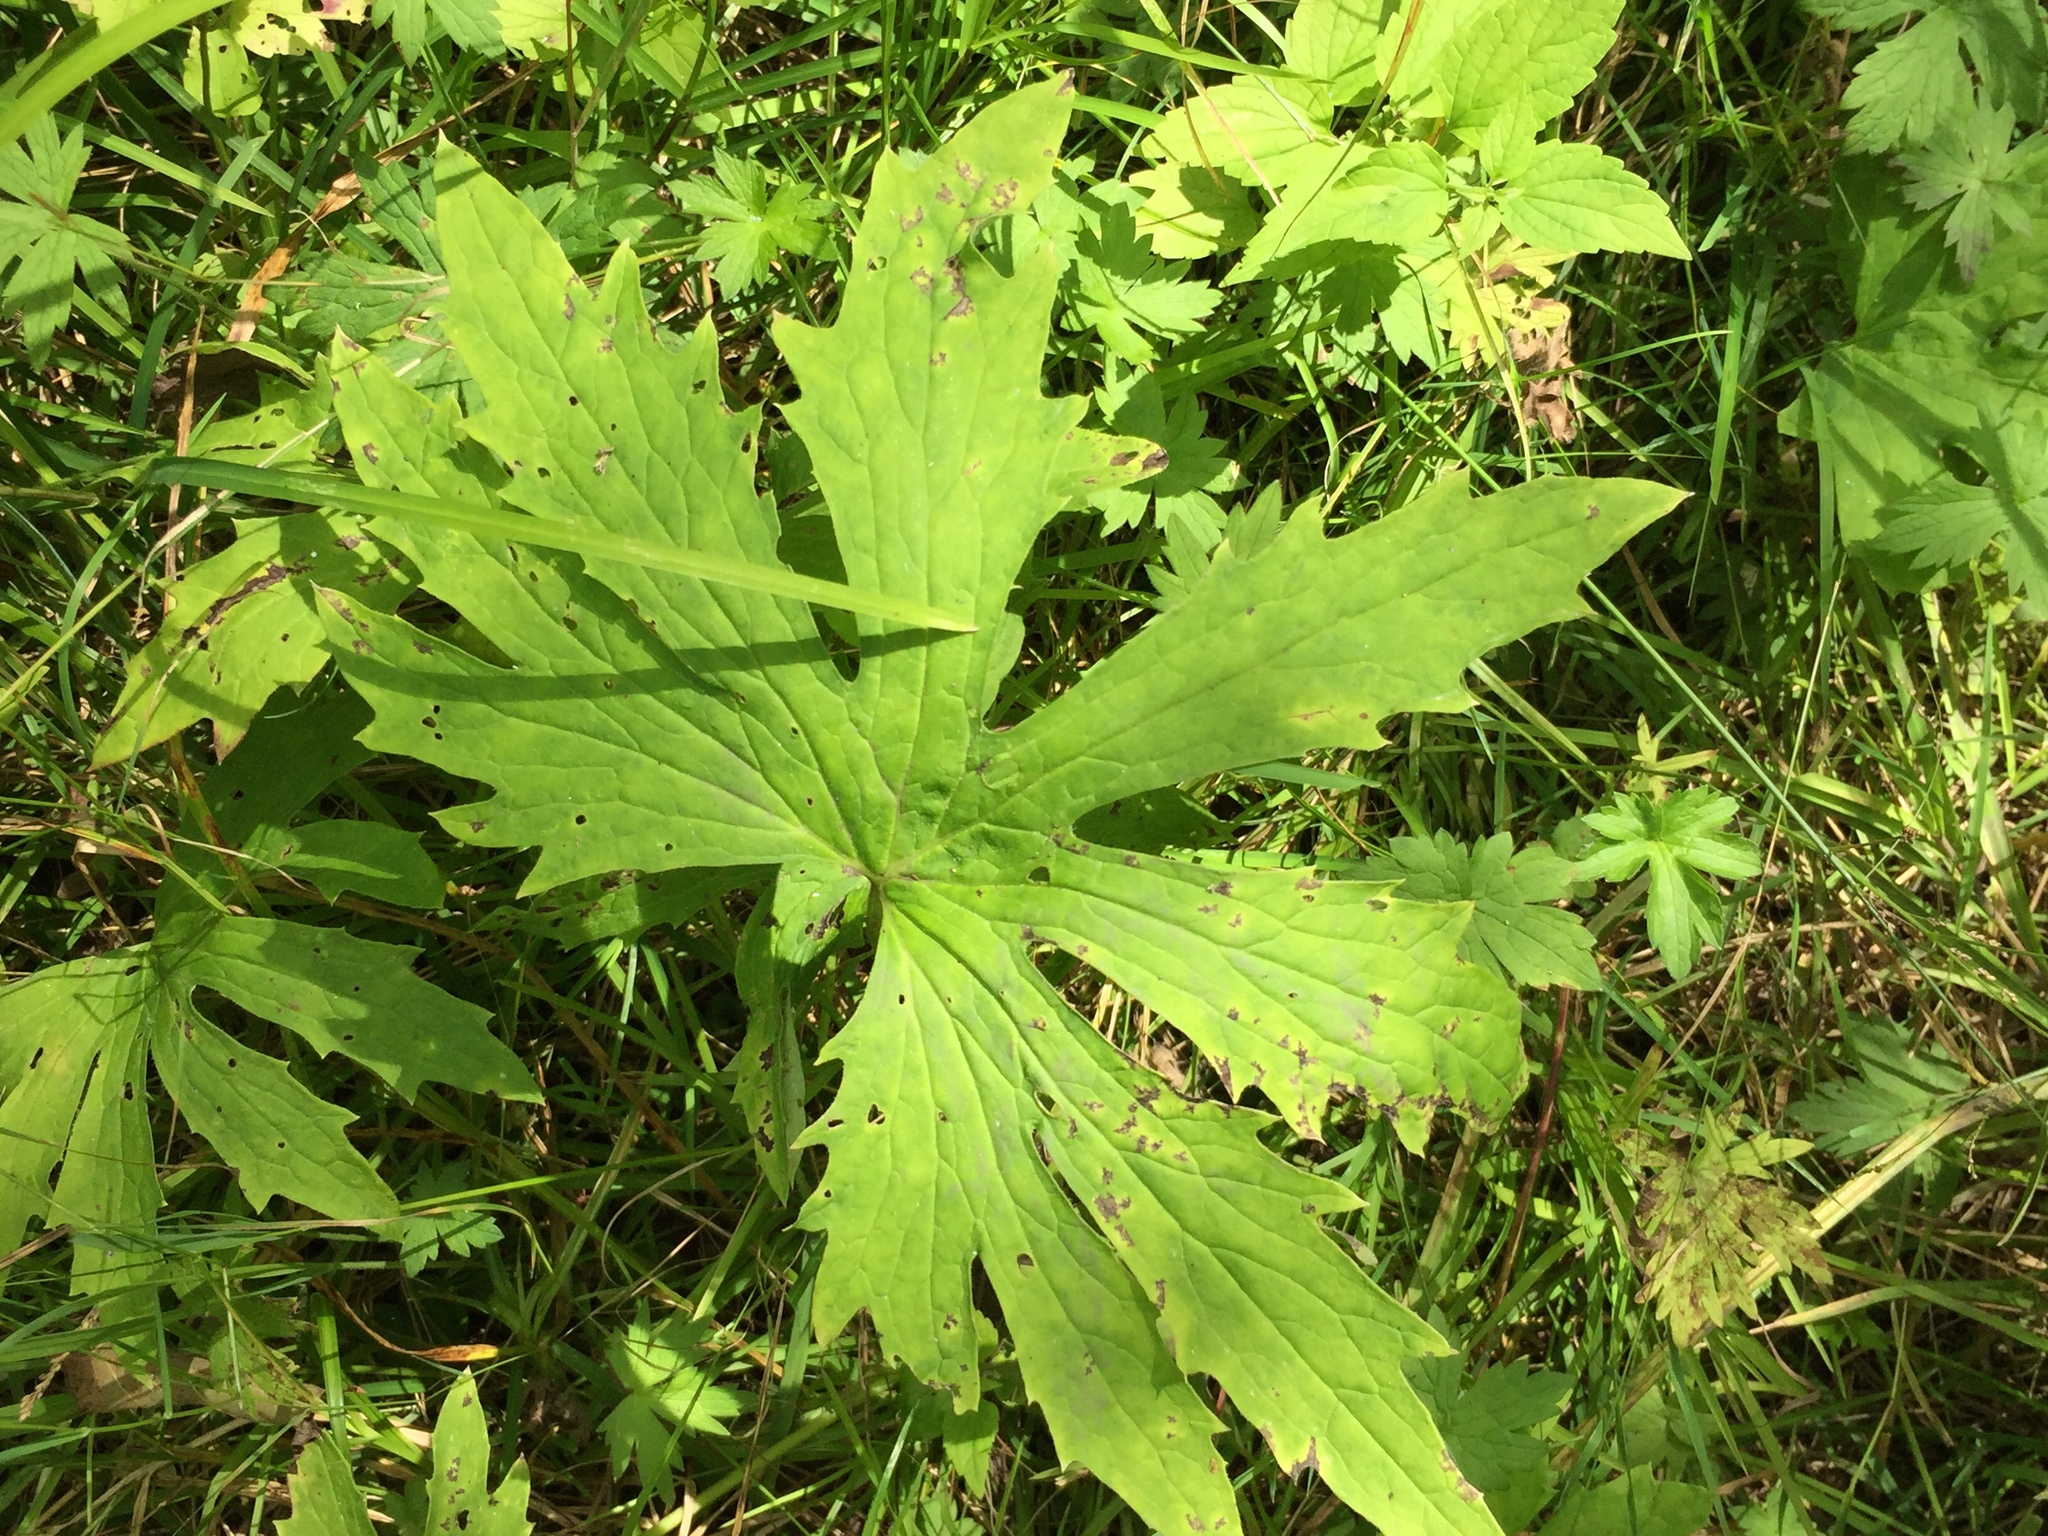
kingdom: Plantae
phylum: Tracheophyta
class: Magnoliopsida
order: Asterales
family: Asteraceae
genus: Petasites
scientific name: Petasites frigidus
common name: Arctic butterbur
